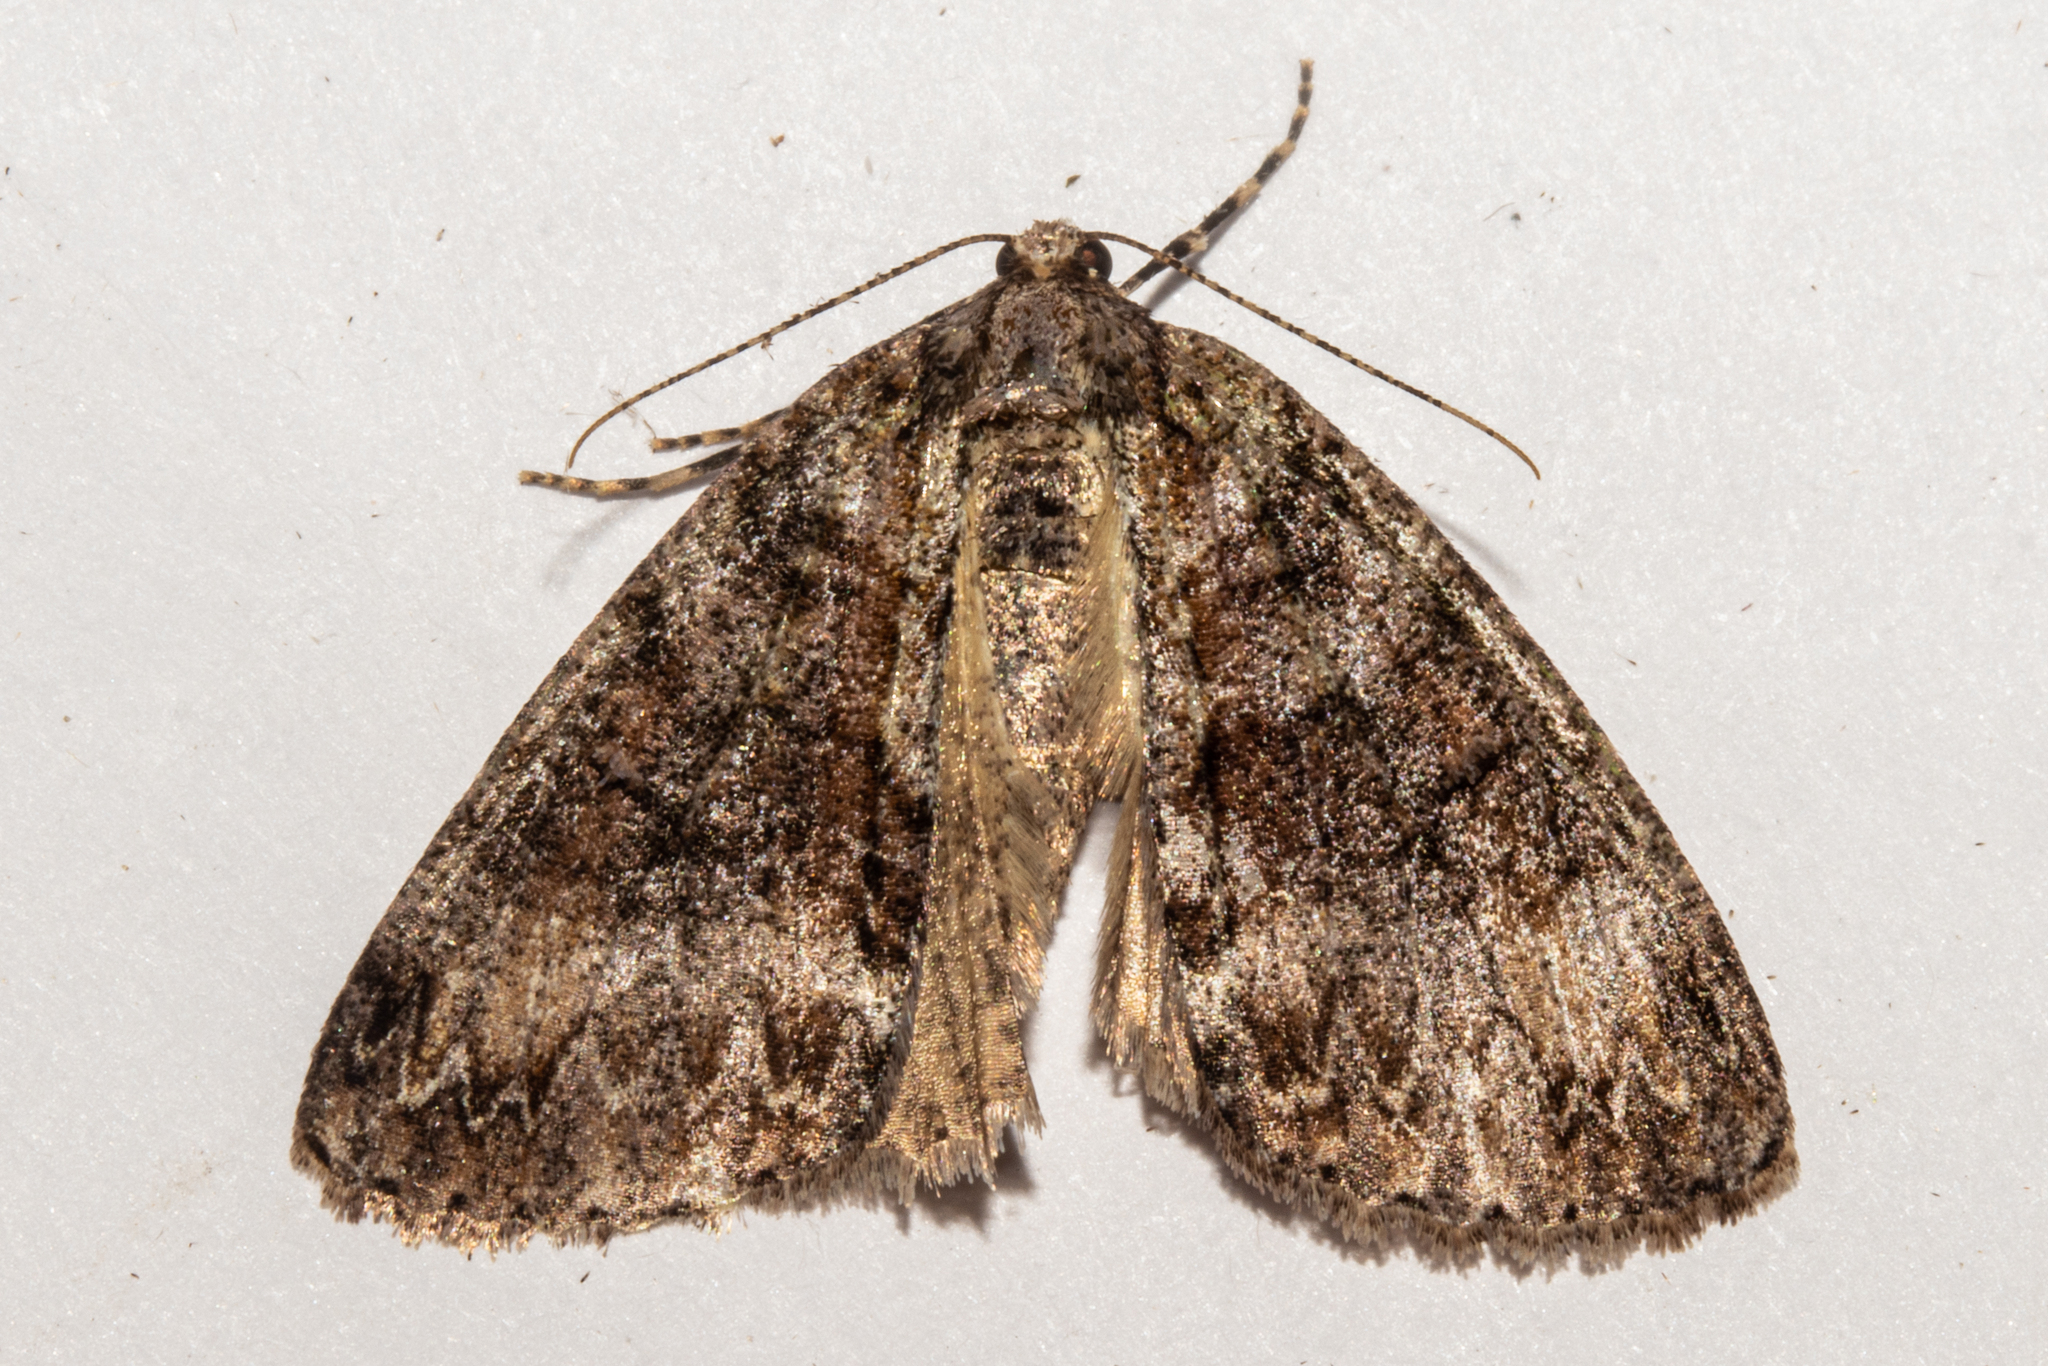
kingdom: Animalia
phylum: Arthropoda
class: Insecta
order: Lepidoptera
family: Geometridae
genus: Pseudocoremia
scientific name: Pseudocoremia suavis
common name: Common forest looper
